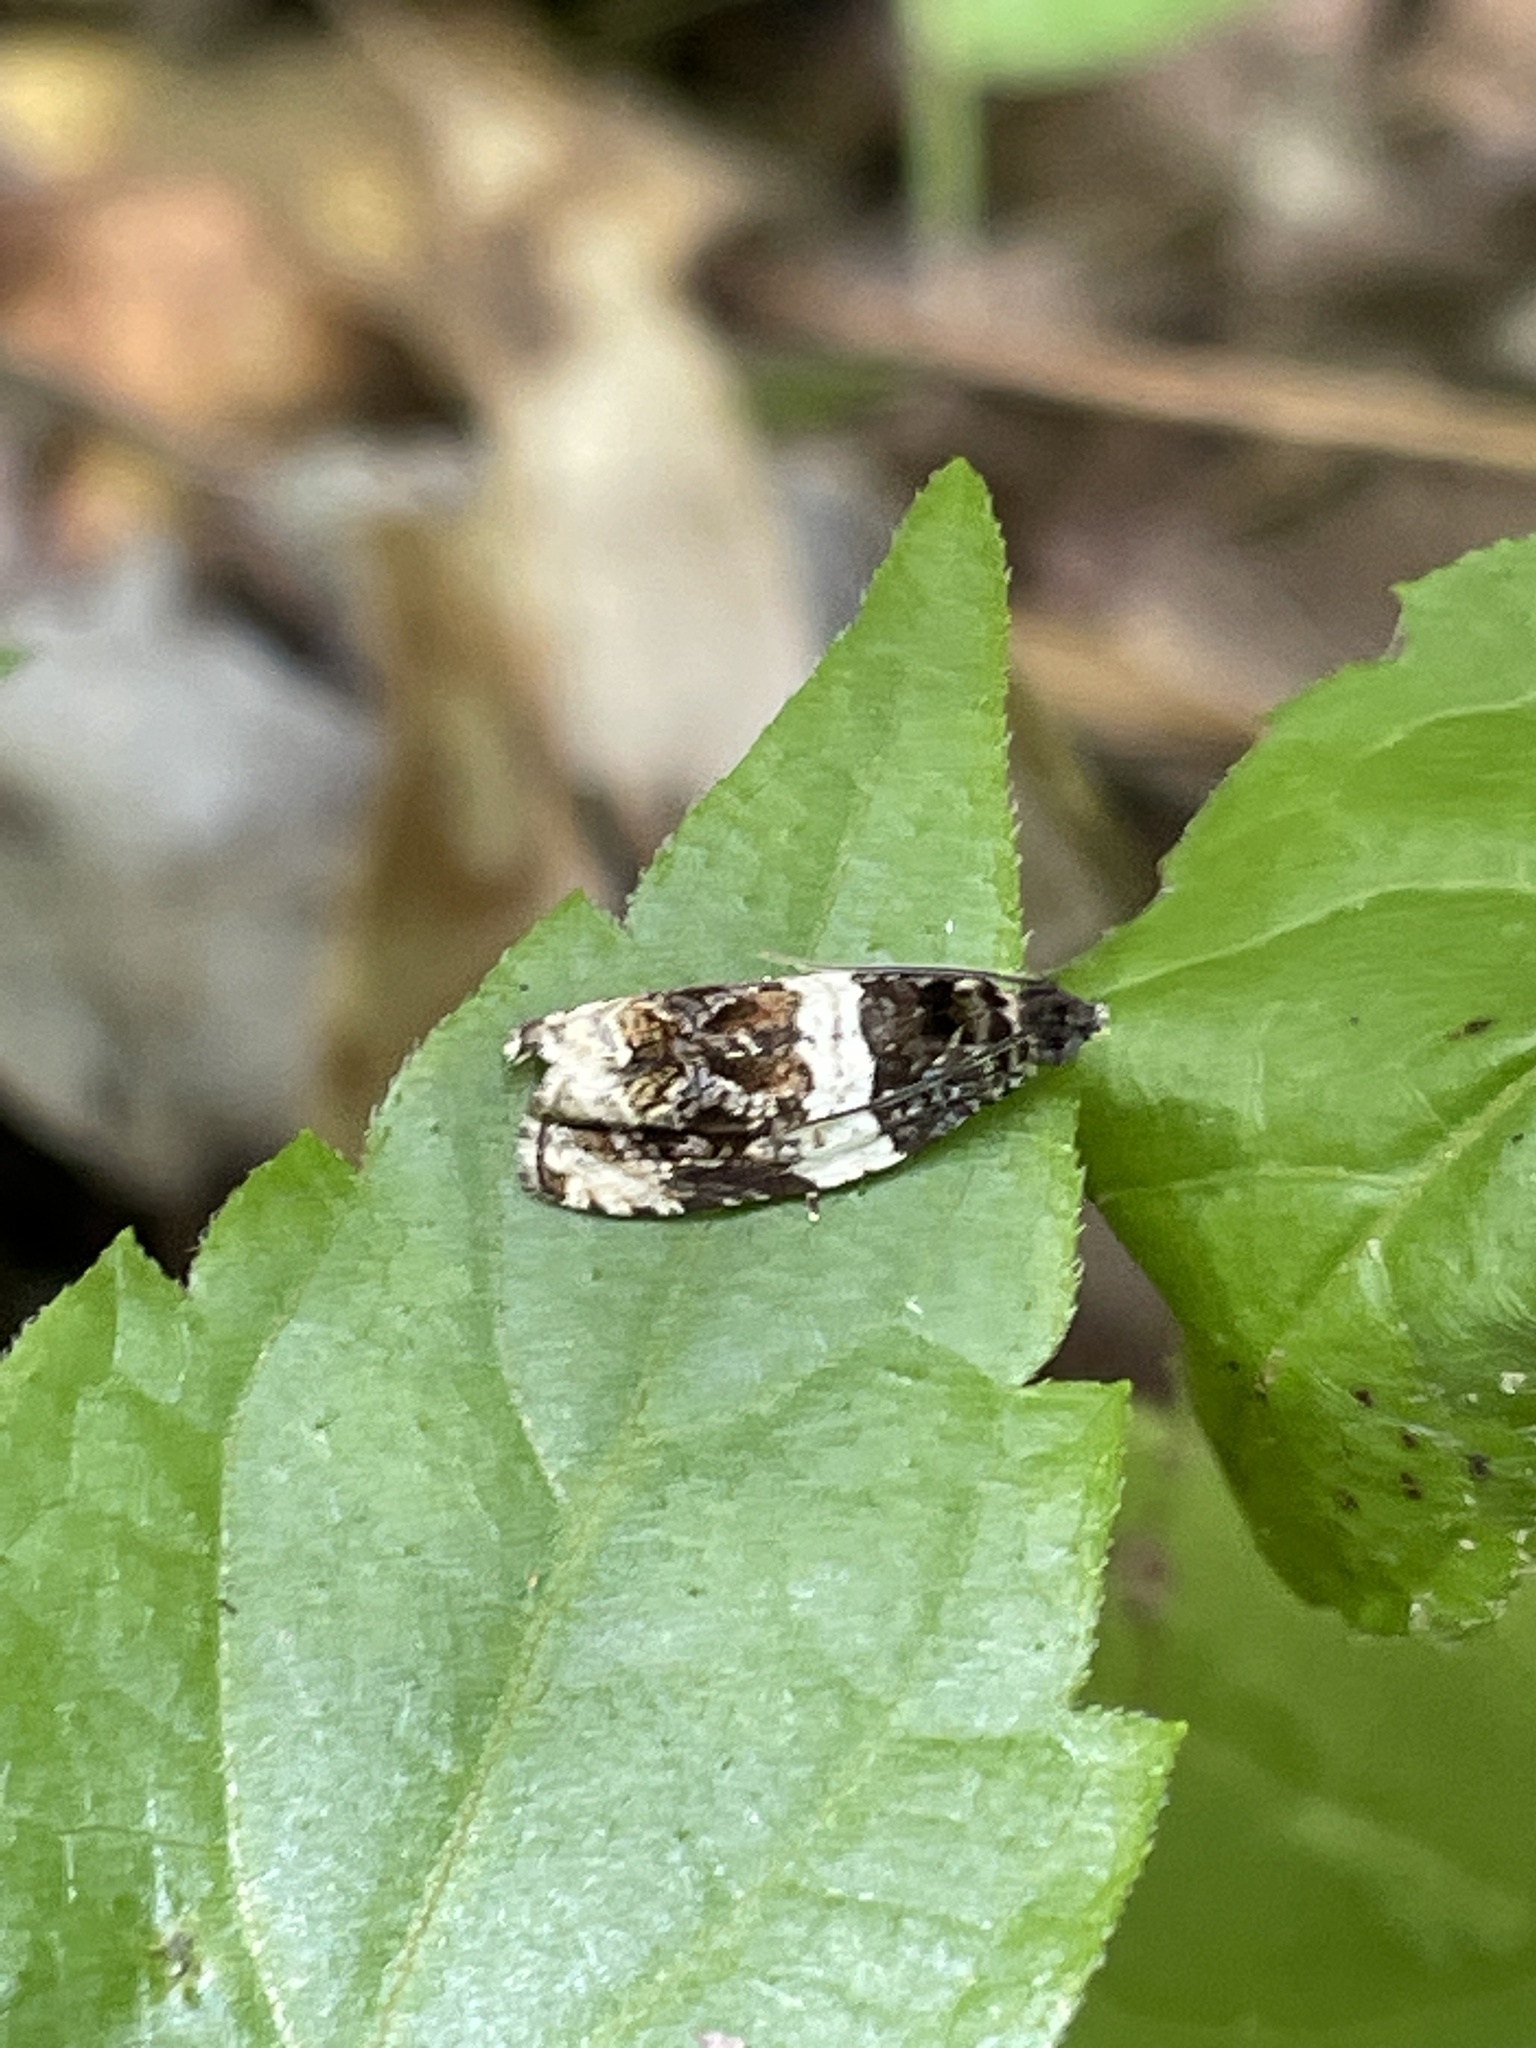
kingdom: Animalia
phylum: Arthropoda
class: Insecta
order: Lepidoptera
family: Tortricidae
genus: Olethreutes
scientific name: Olethreutes fasciatana
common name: Banded olethreutes moth
